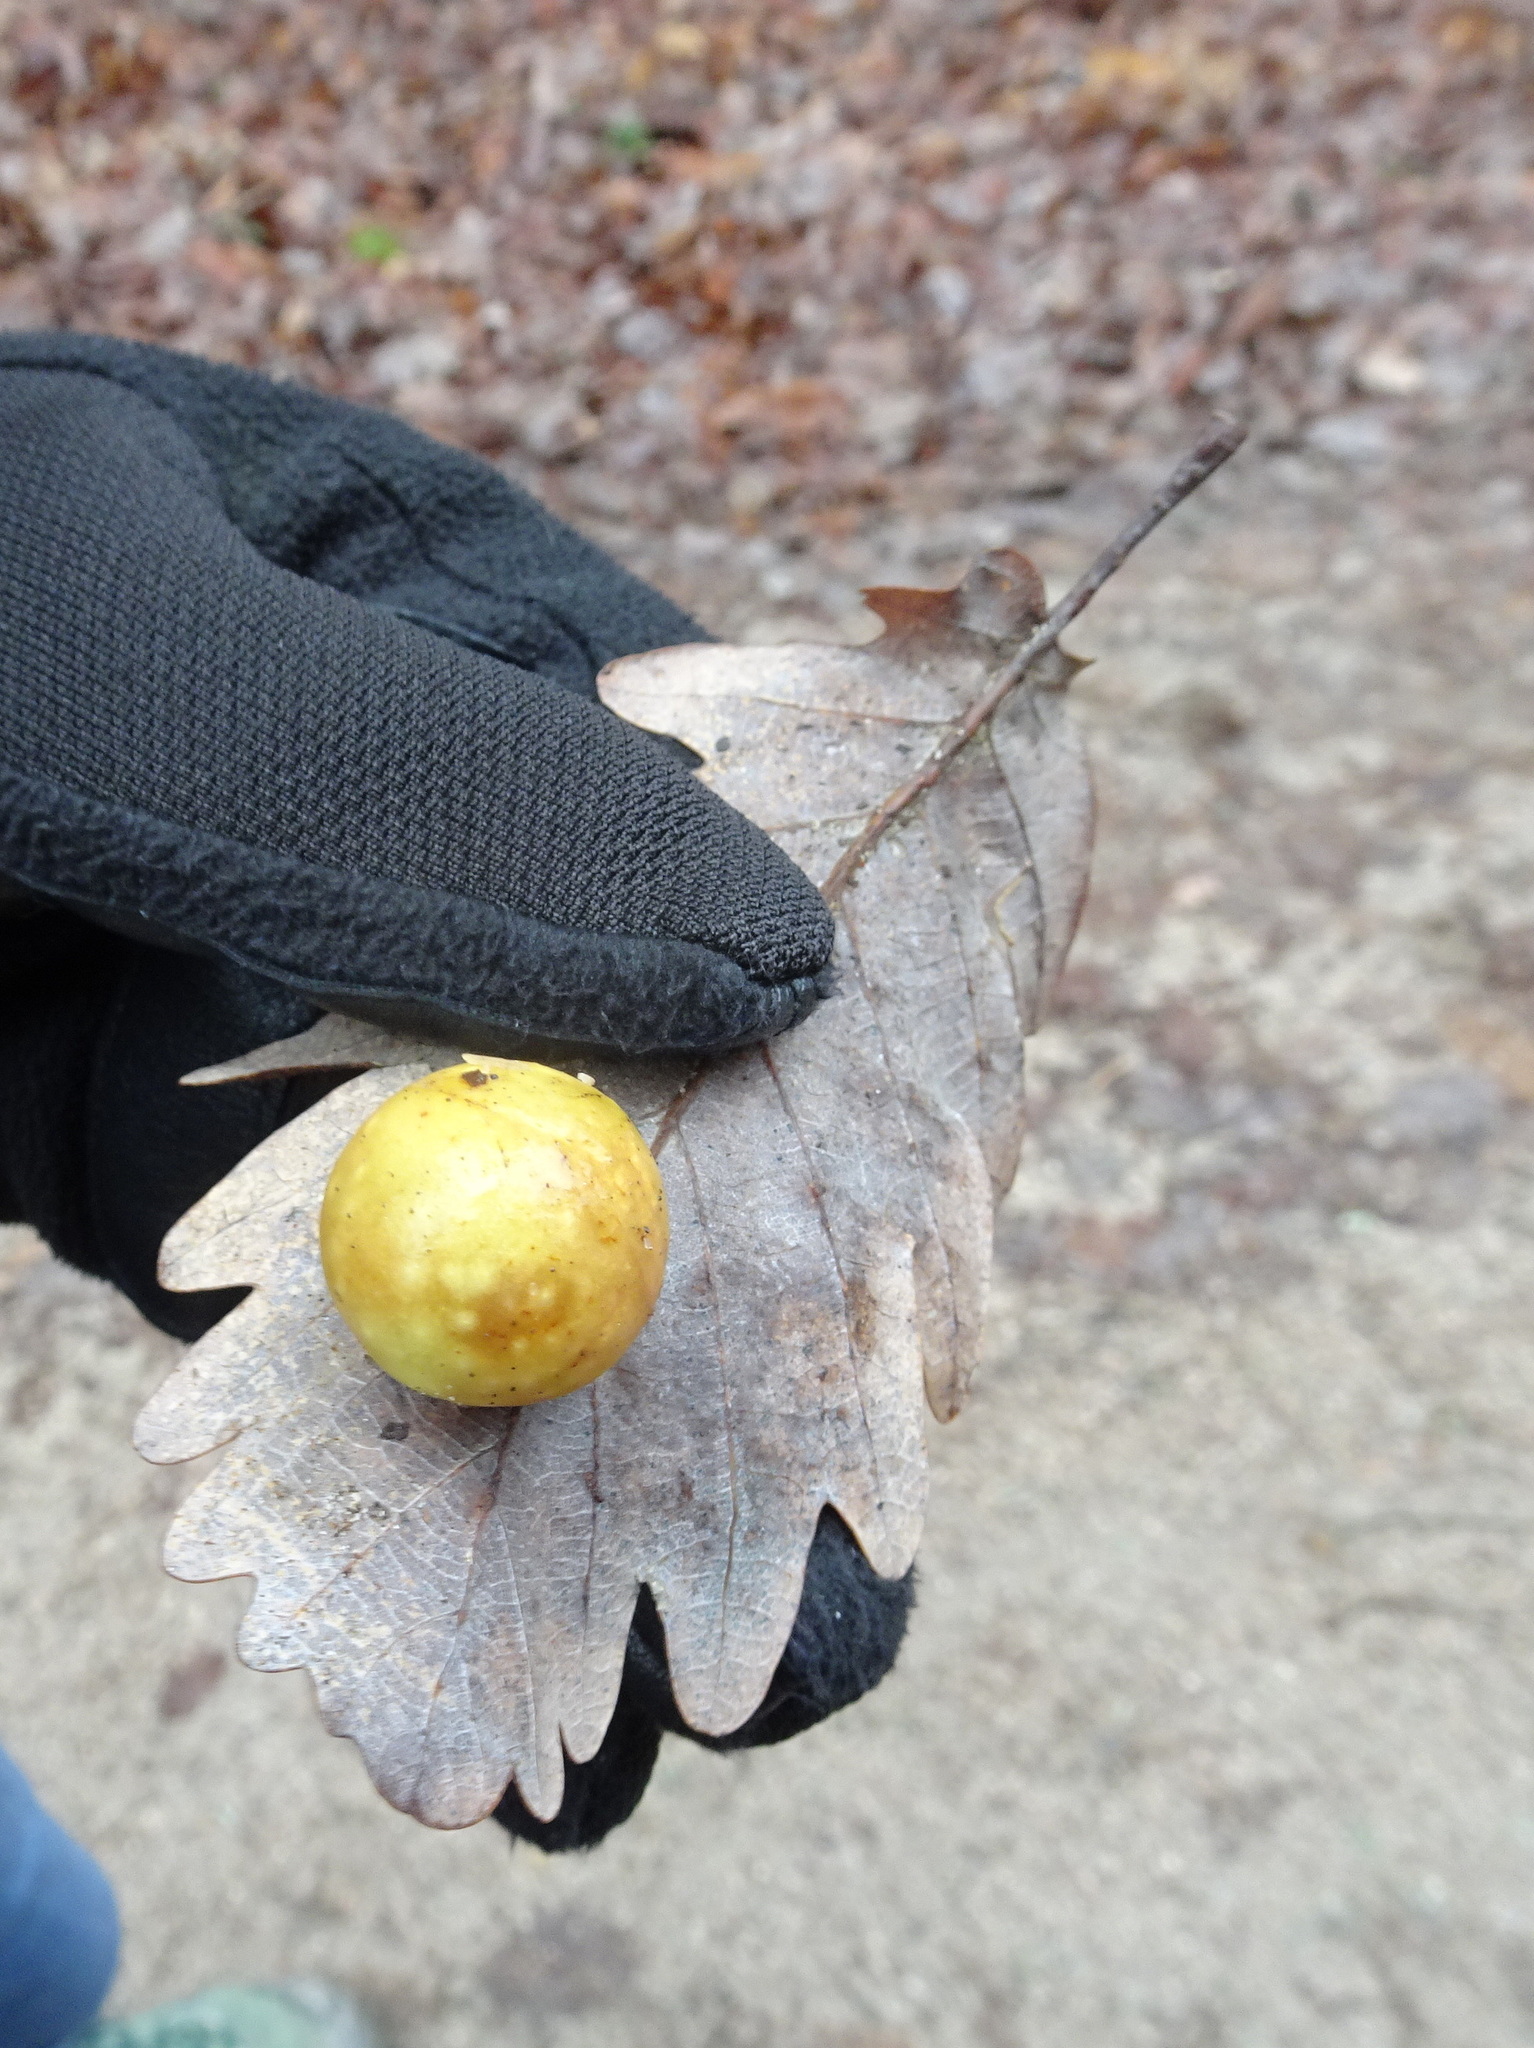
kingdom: Animalia
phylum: Arthropoda
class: Insecta
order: Hymenoptera
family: Cynipidae
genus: Cynips
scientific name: Cynips quercusfolii
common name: Cherry gall
